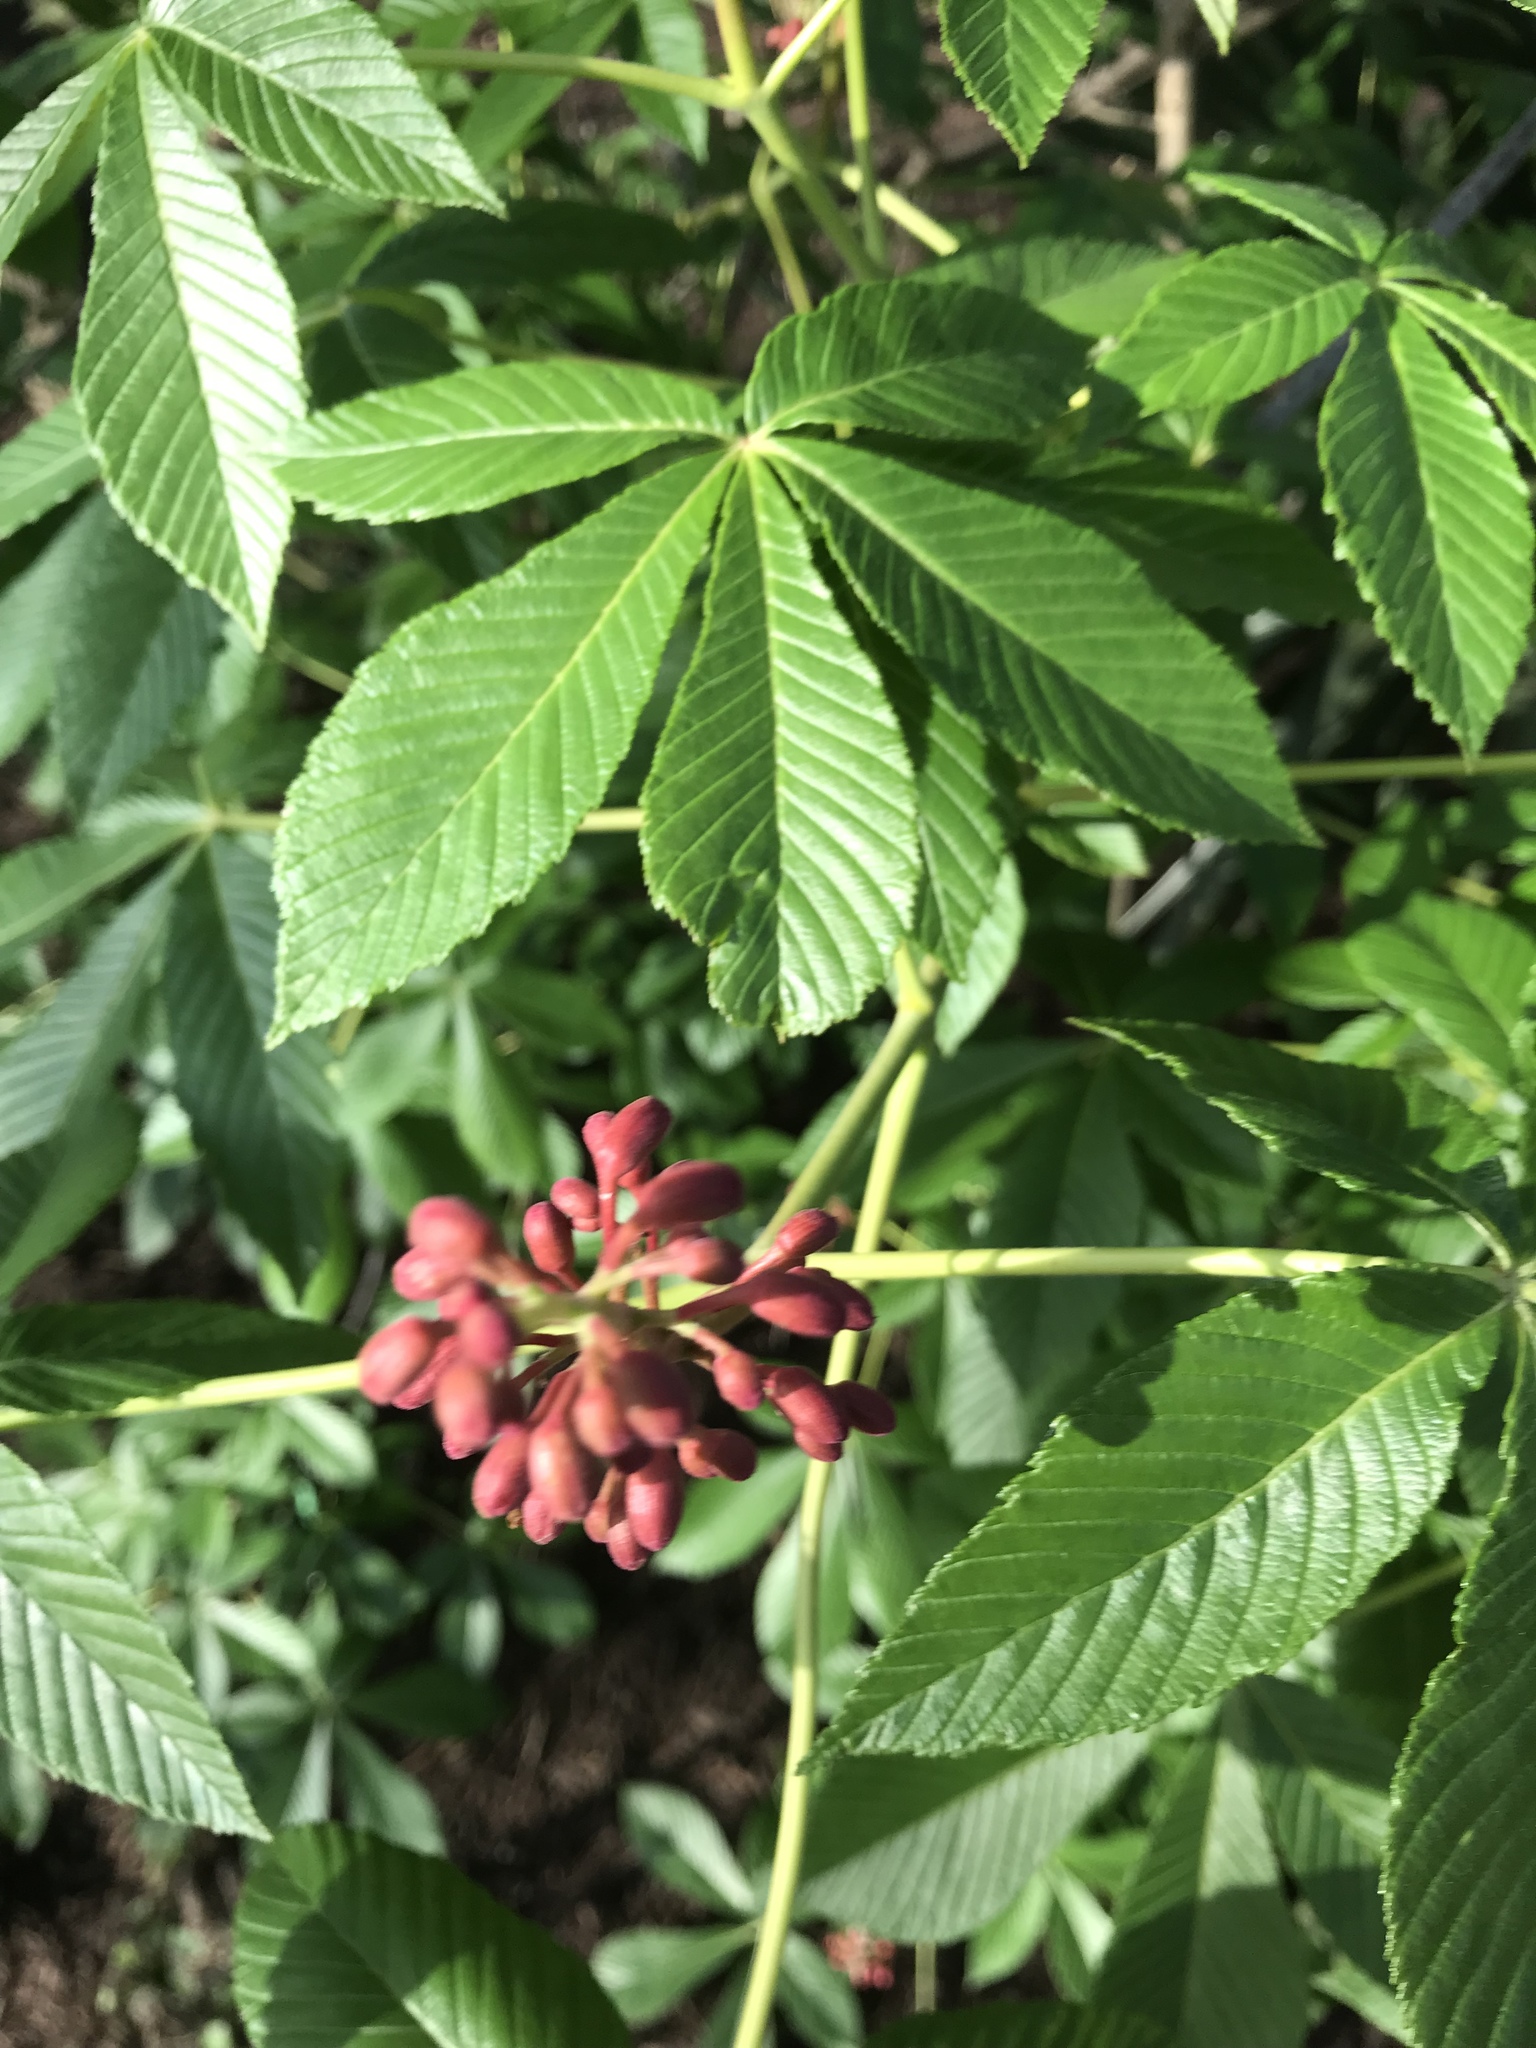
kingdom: Plantae
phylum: Tracheophyta
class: Magnoliopsida
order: Sapindales
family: Sapindaceae
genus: Aesculus
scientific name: Aesculus pavia
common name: Red buckeye
